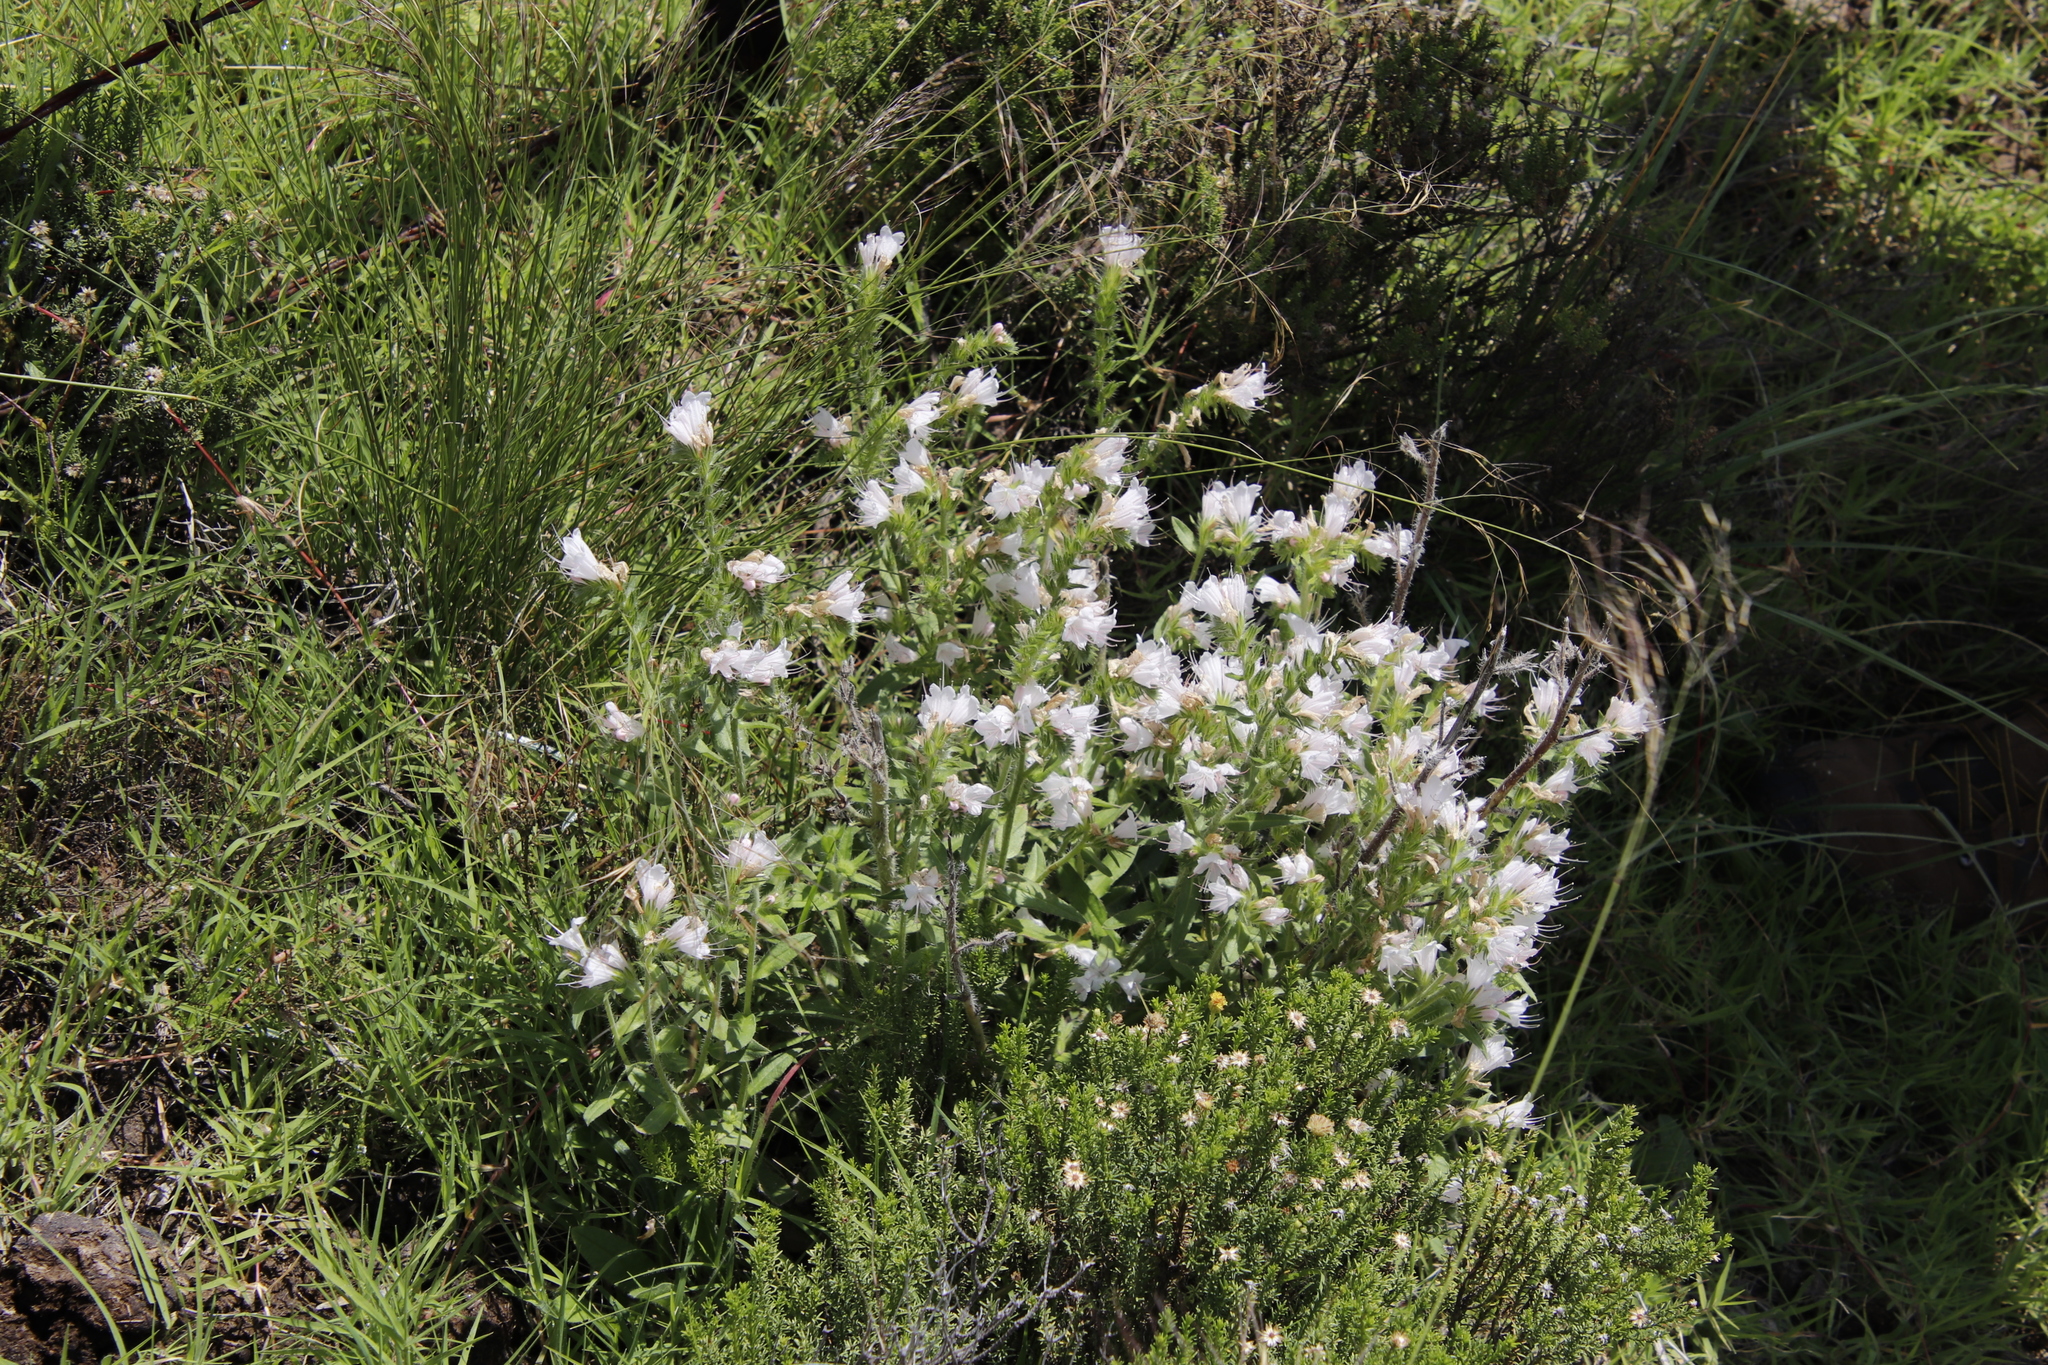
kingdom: Plantae
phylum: Tracheophyta
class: Magnoliopsida
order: Boraginales
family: Boraginaceae
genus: Echium
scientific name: Echium vulgare
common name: Common viper's bugloss
